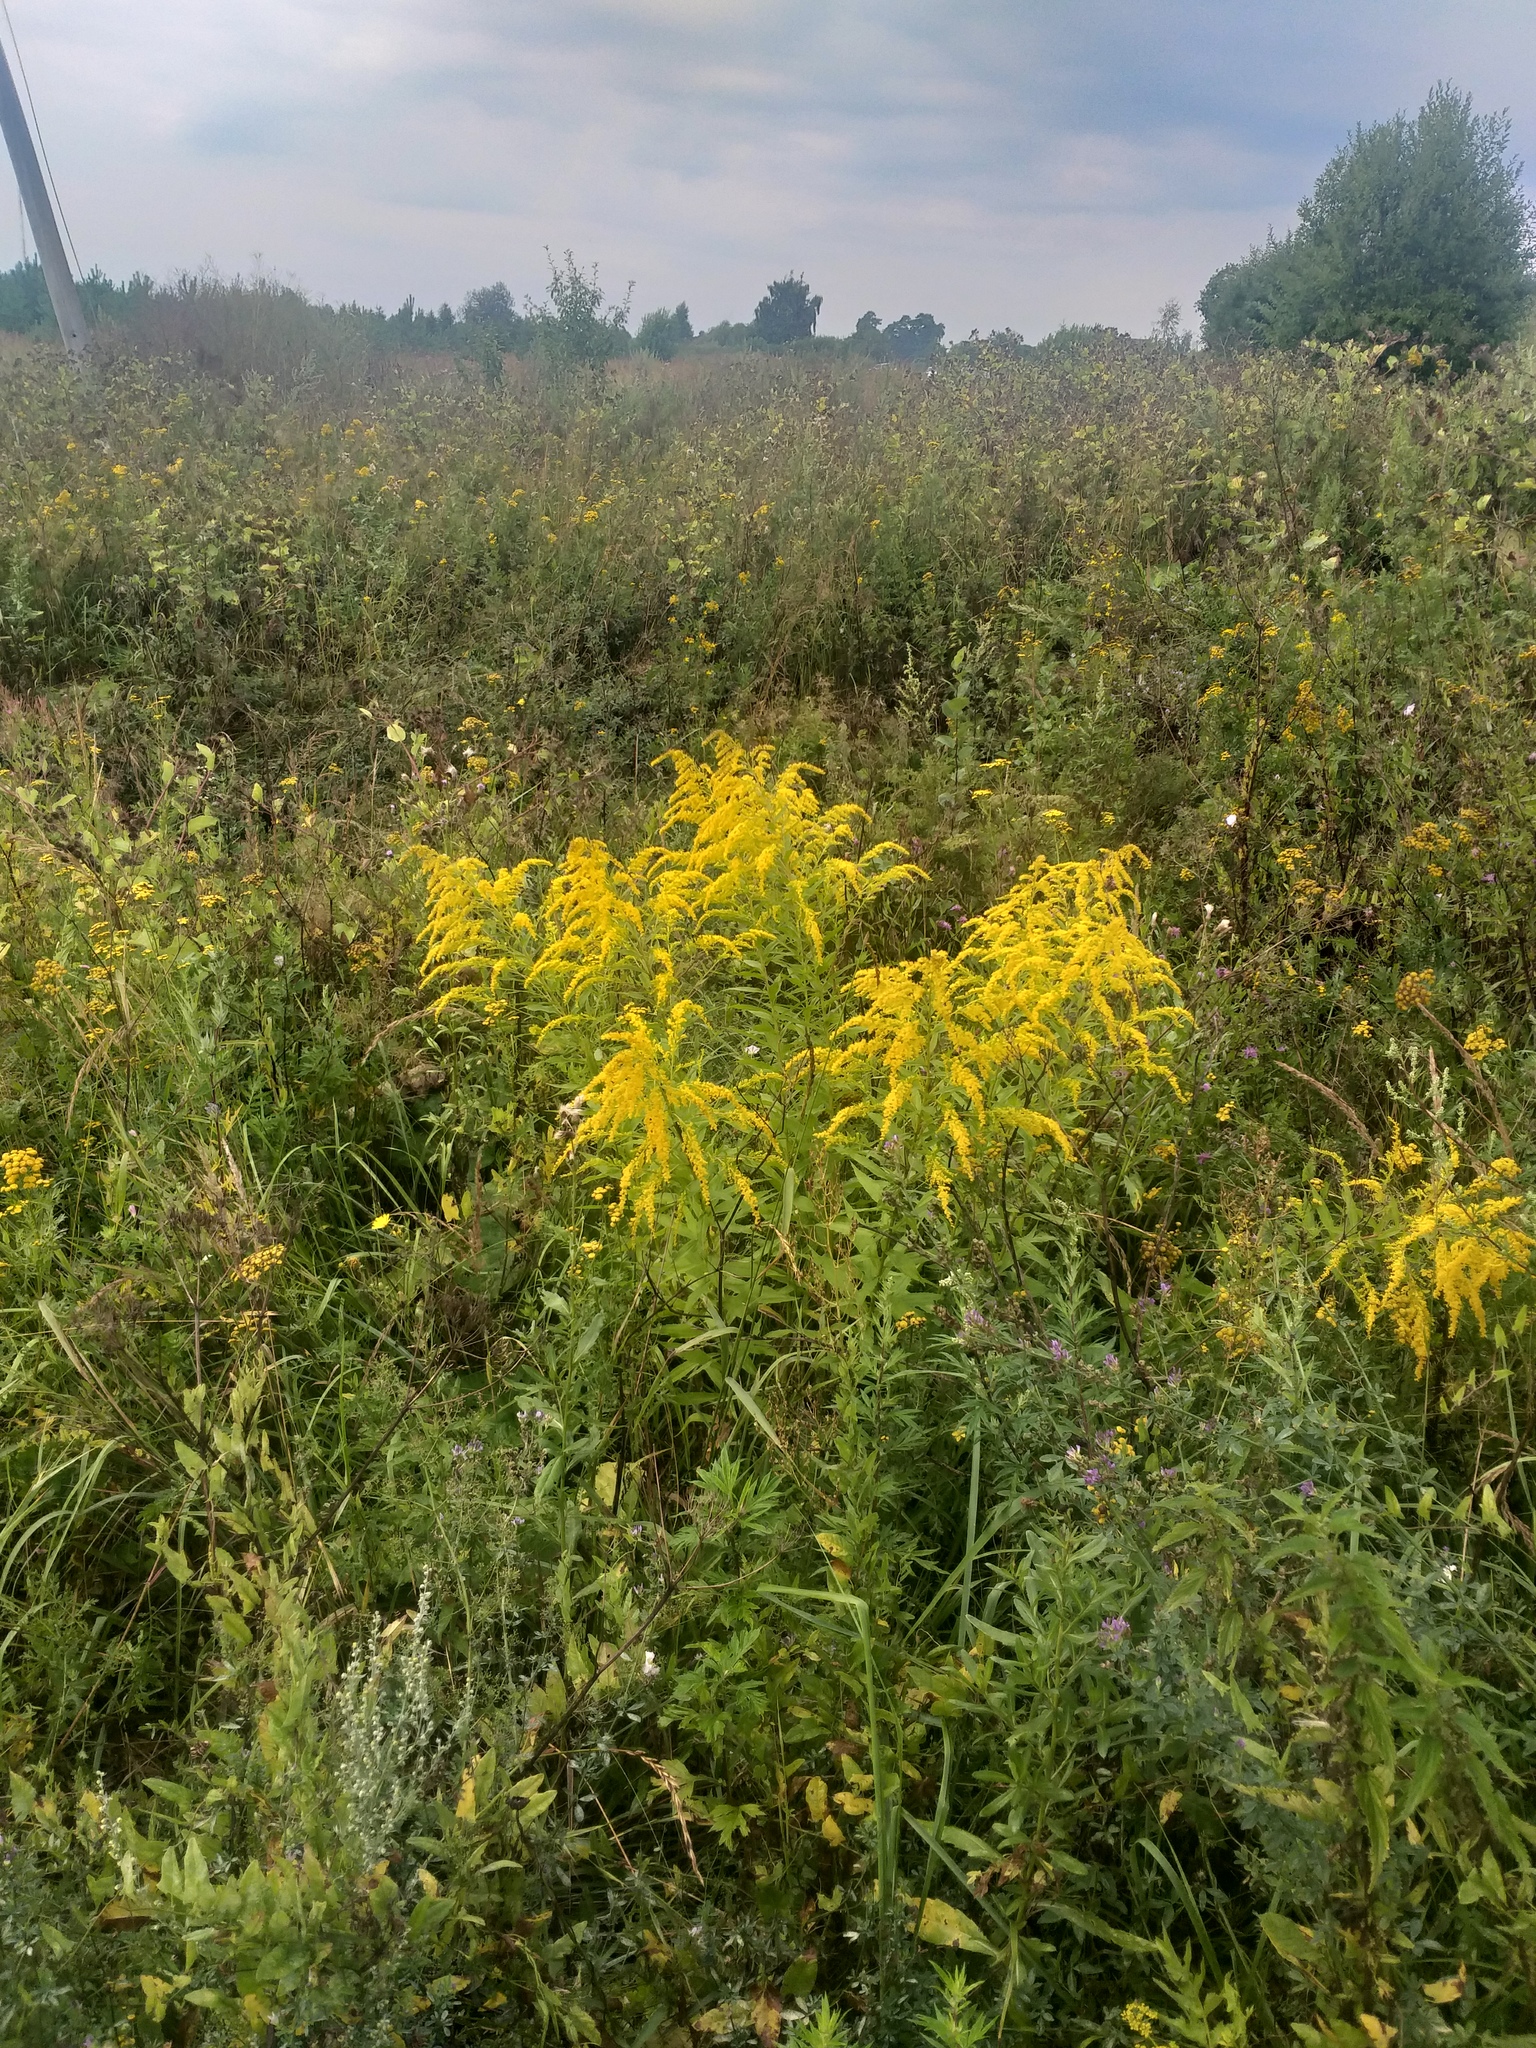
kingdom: Plantae
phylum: Tracheophyta
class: Magnoliopsida
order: Asterales
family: Asteraceae
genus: Solidago
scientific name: Solidago canadensis
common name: Canada goldenrod
